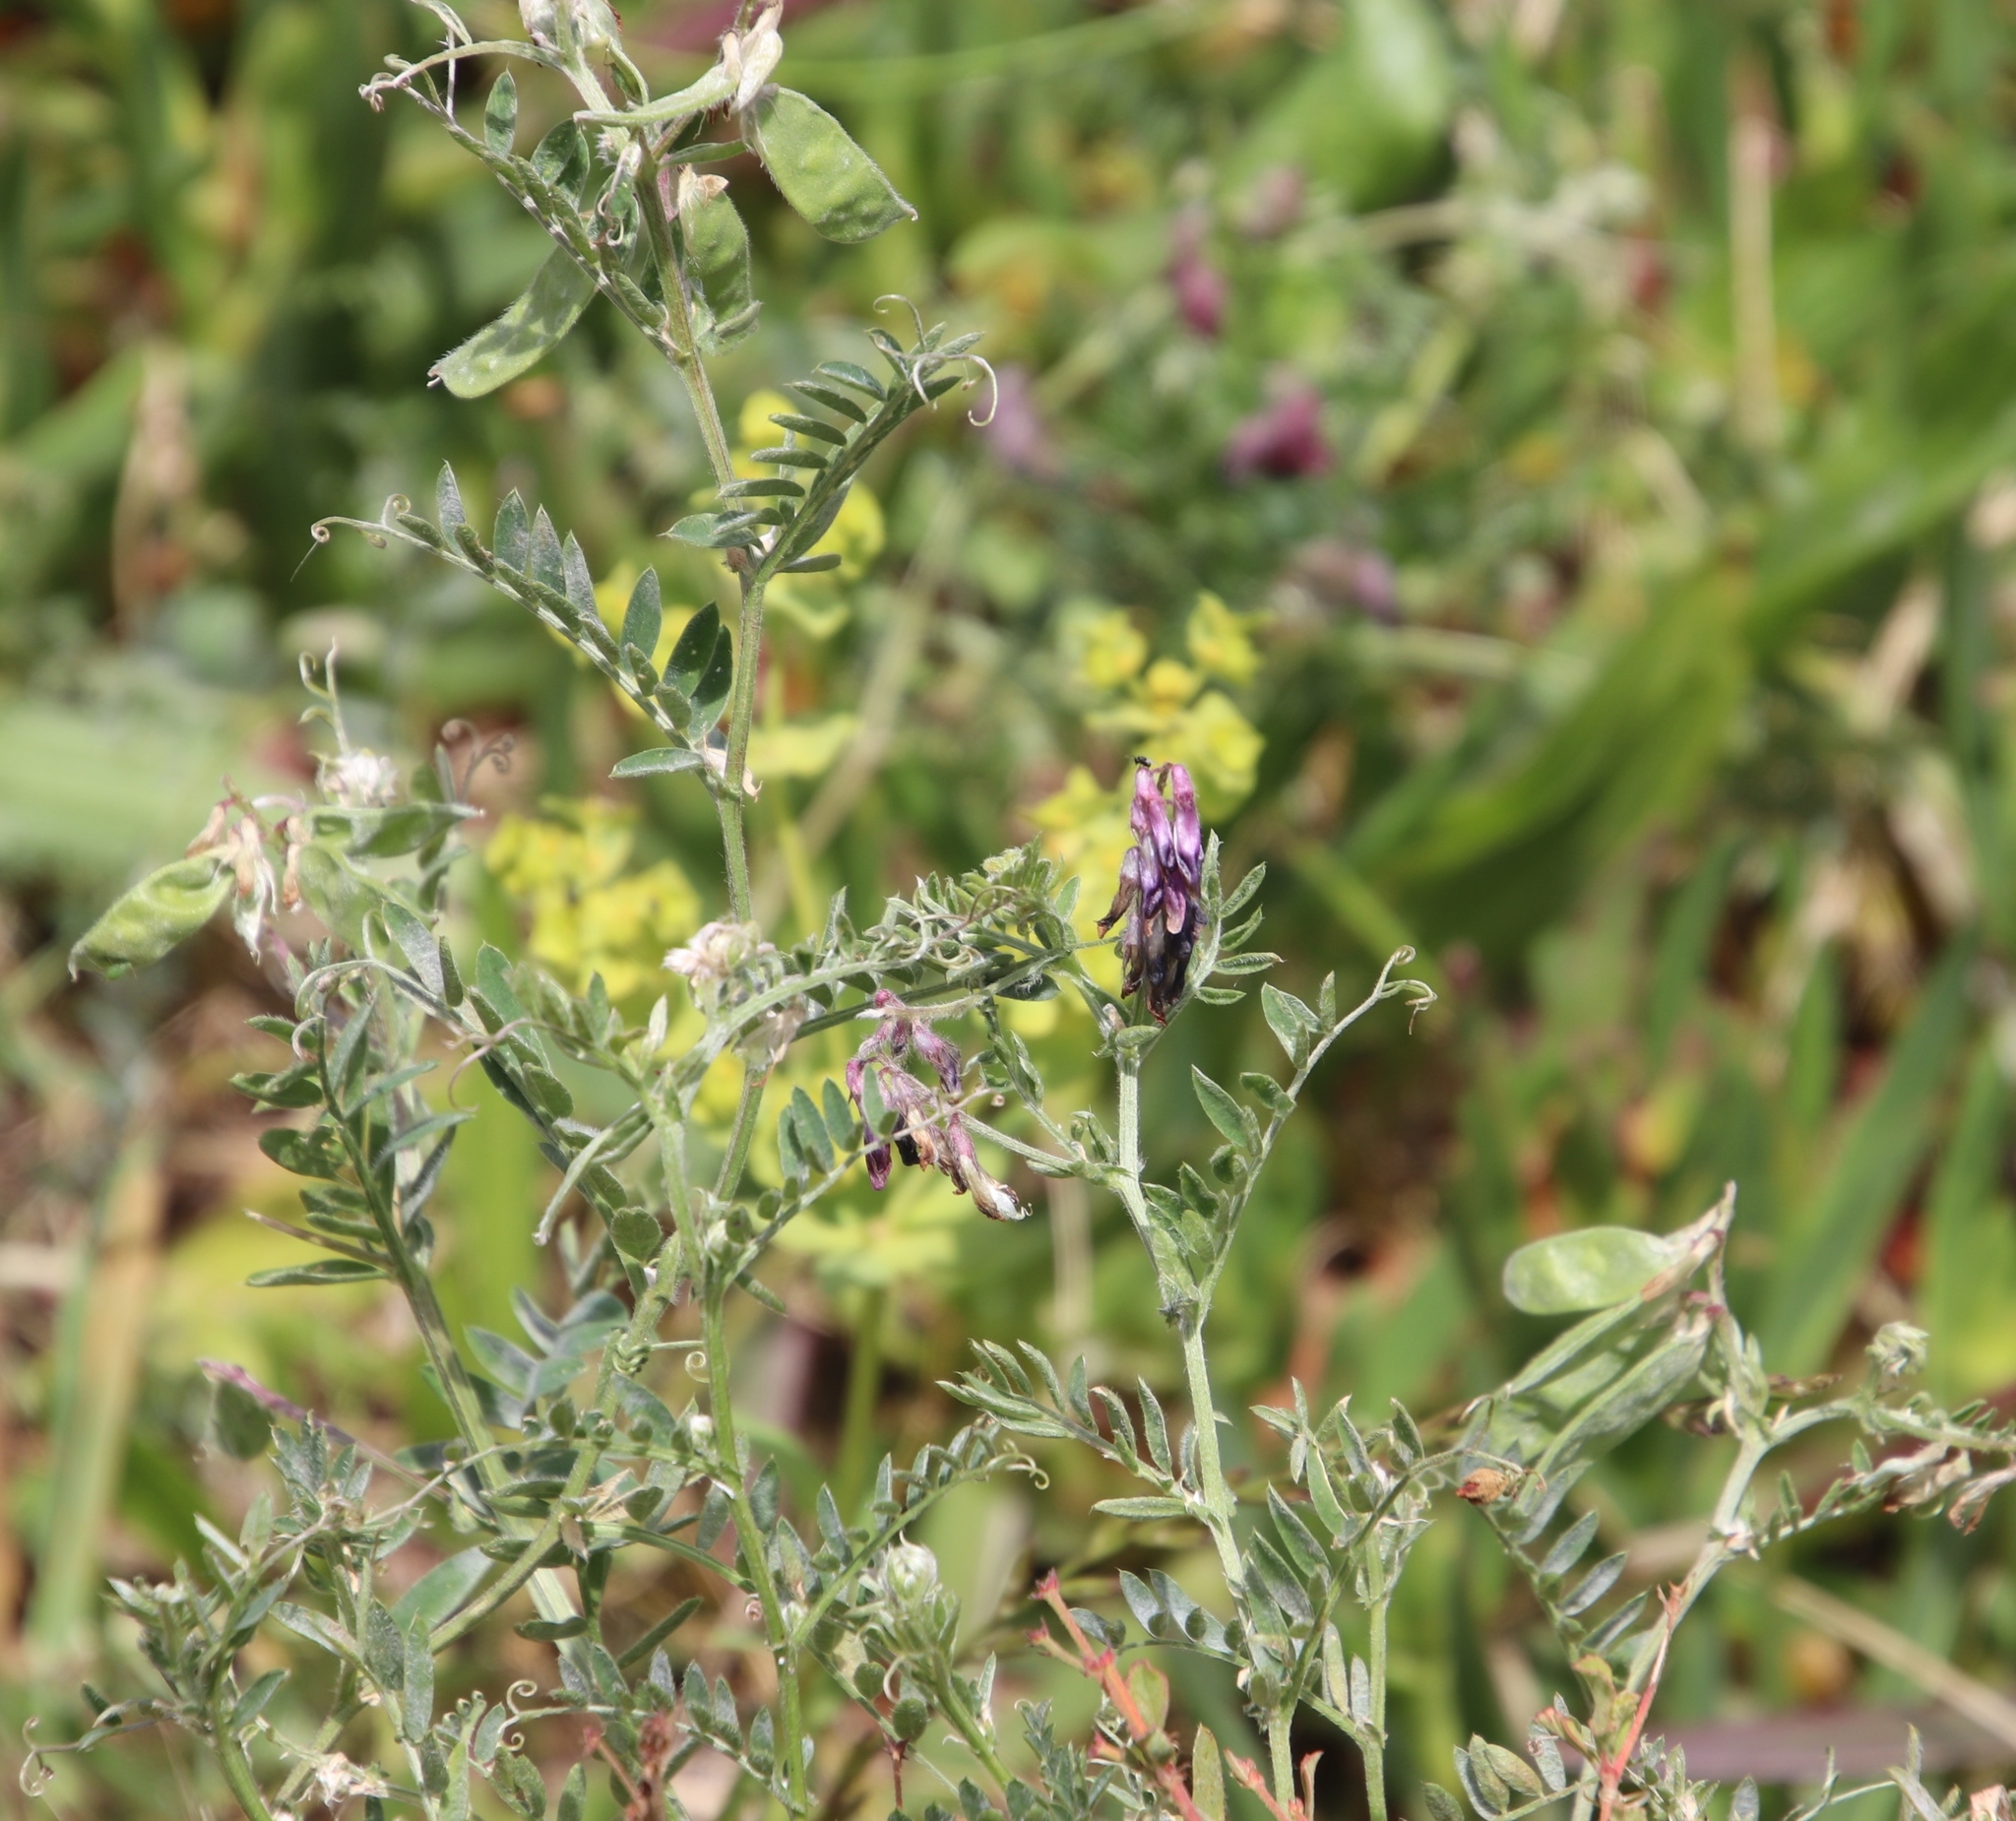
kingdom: Plantae
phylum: Tracheophyta
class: Magnoliopsida
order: Fabales
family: Fabaceae
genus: Vicia
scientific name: Vicia benghalensis
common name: Purple vetch
